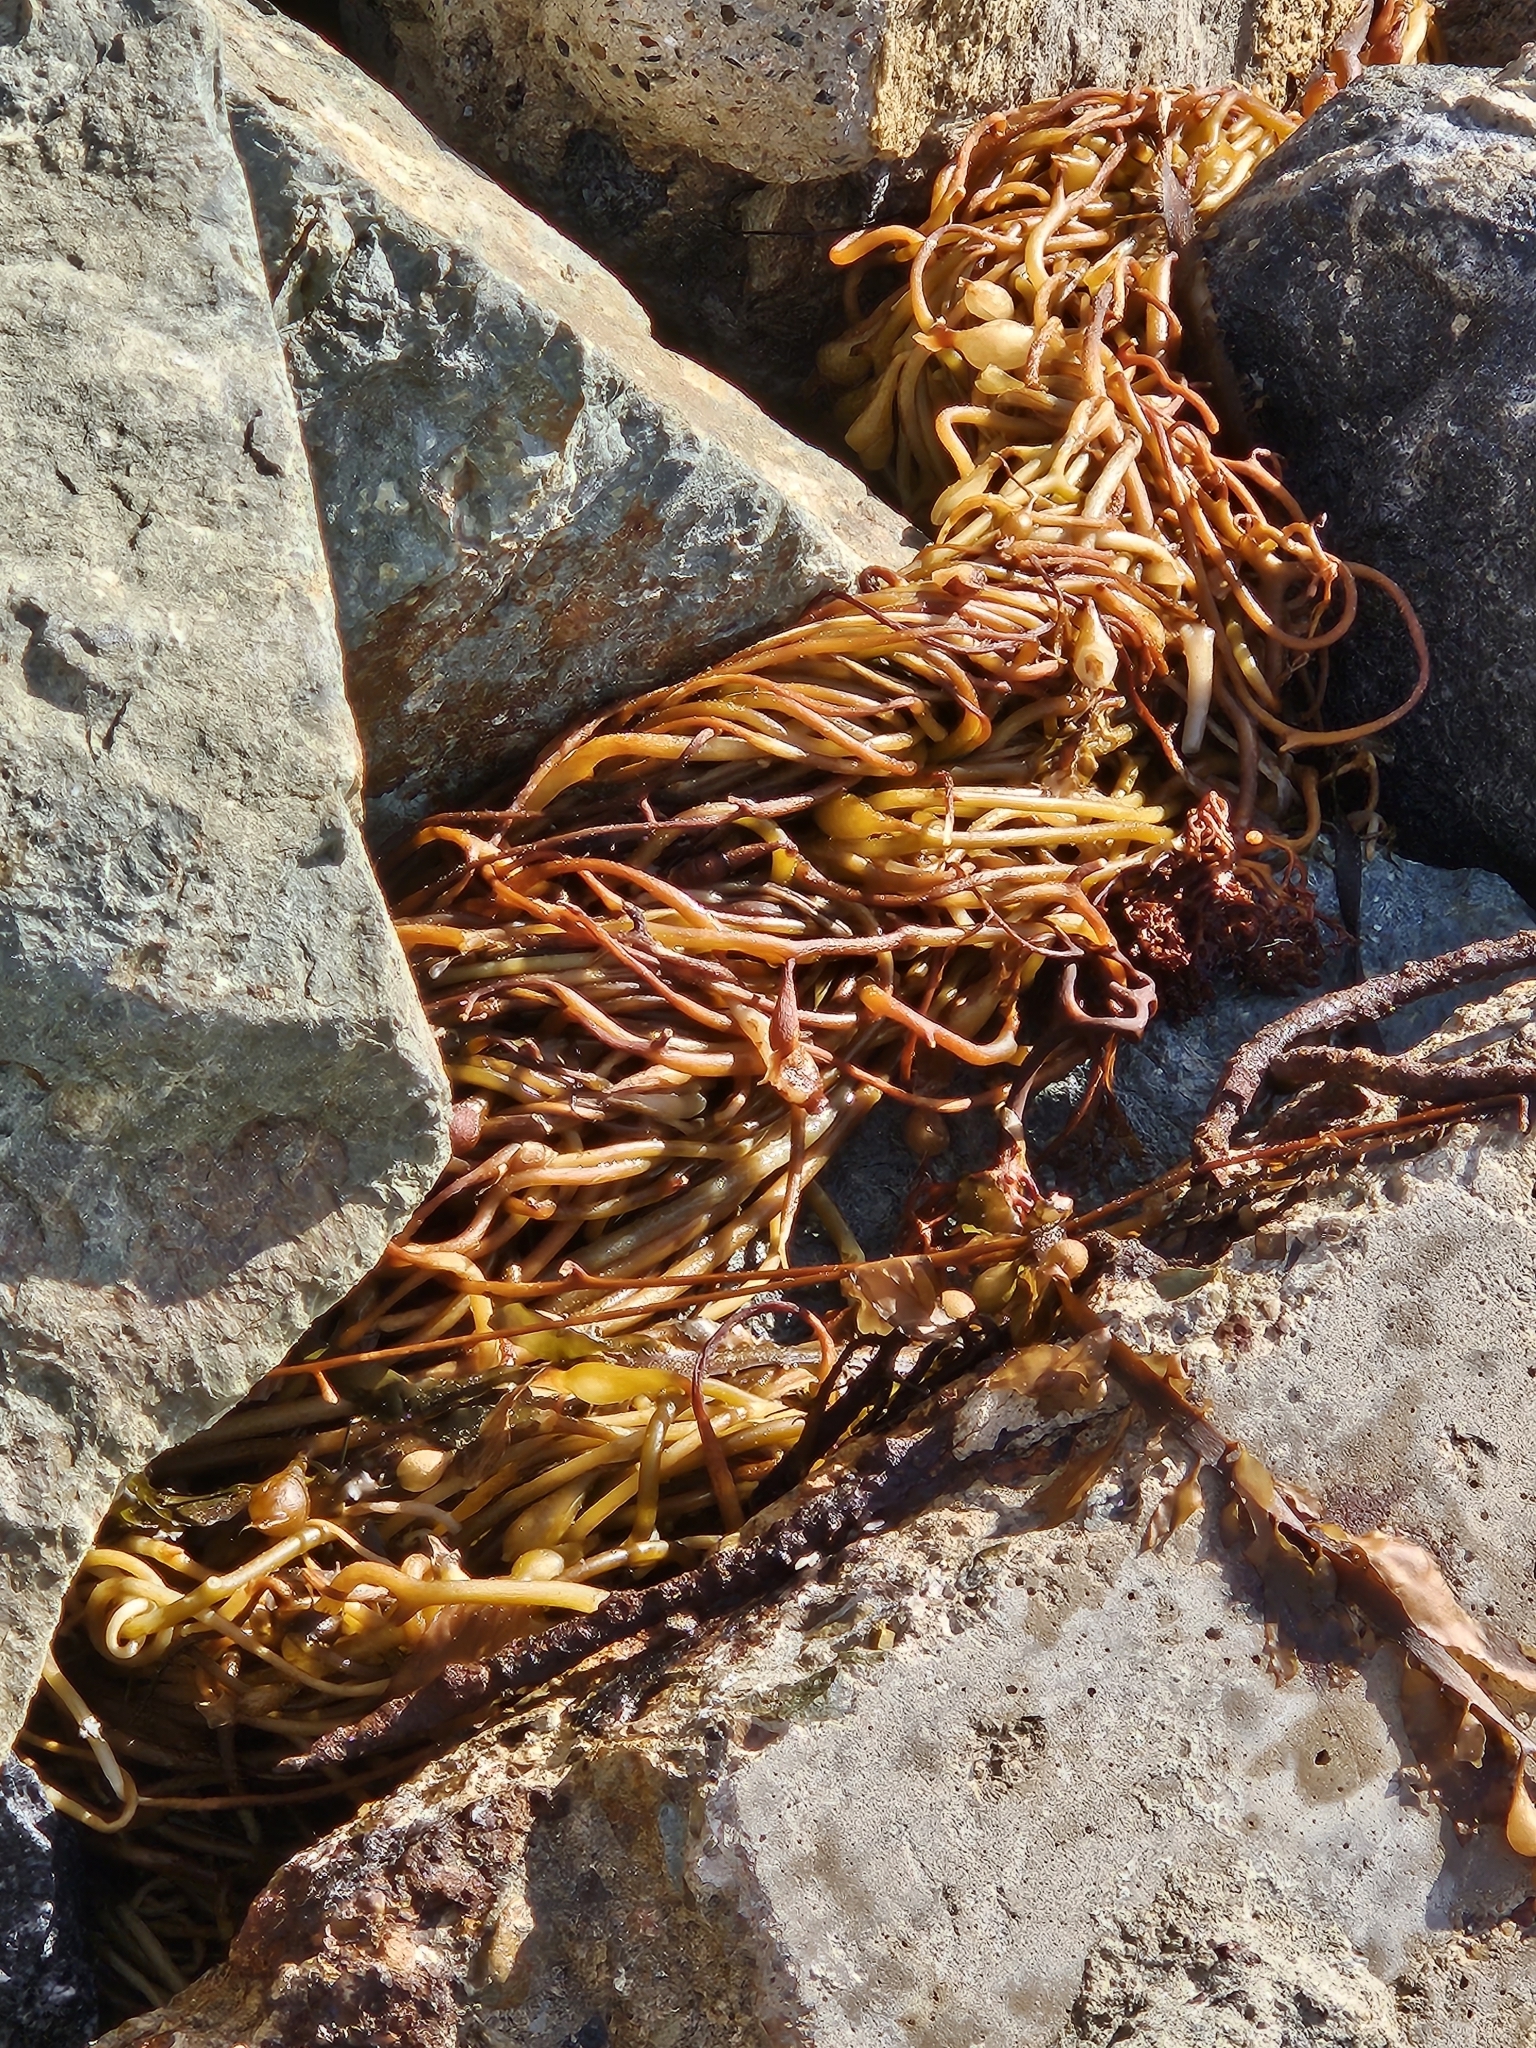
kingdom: Chromista
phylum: Ochrophyta
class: Phaeophyceae
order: Laminariales
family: Laminariaceae
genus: Macrocystis
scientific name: Macrocystis pyrifera
